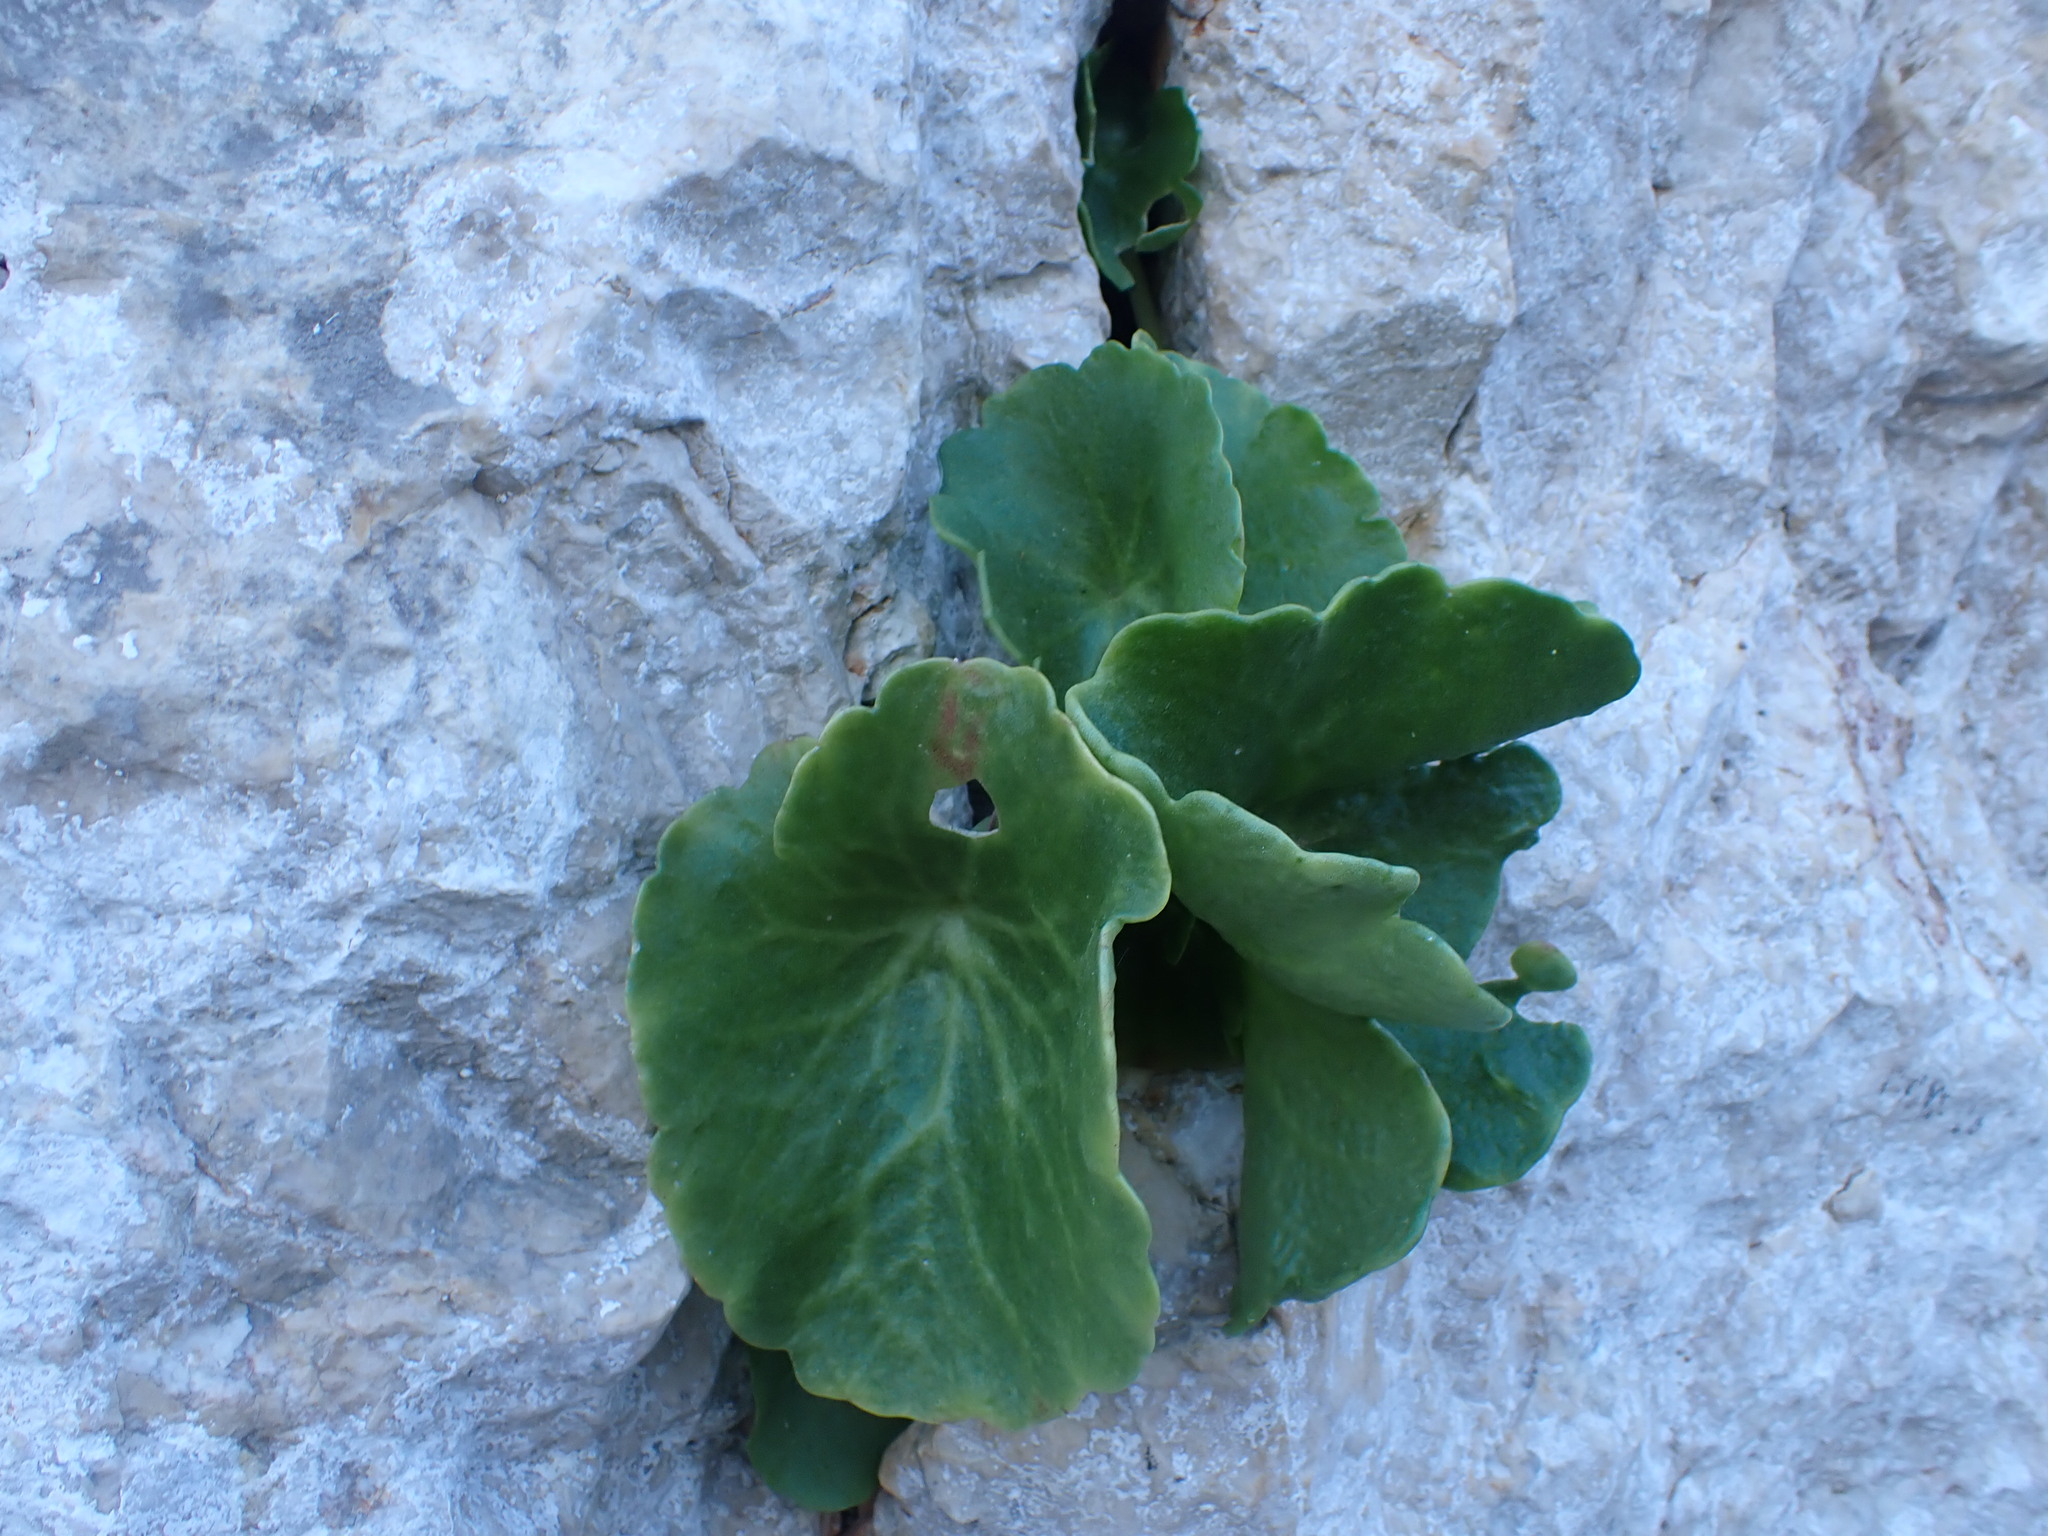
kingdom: Plantae
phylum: Tracheophyta
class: Magnoliopsida
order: Saxifragales
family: Crassulaceae
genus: Umbilicus
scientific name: Umbilicus rupestris
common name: Navelwort
